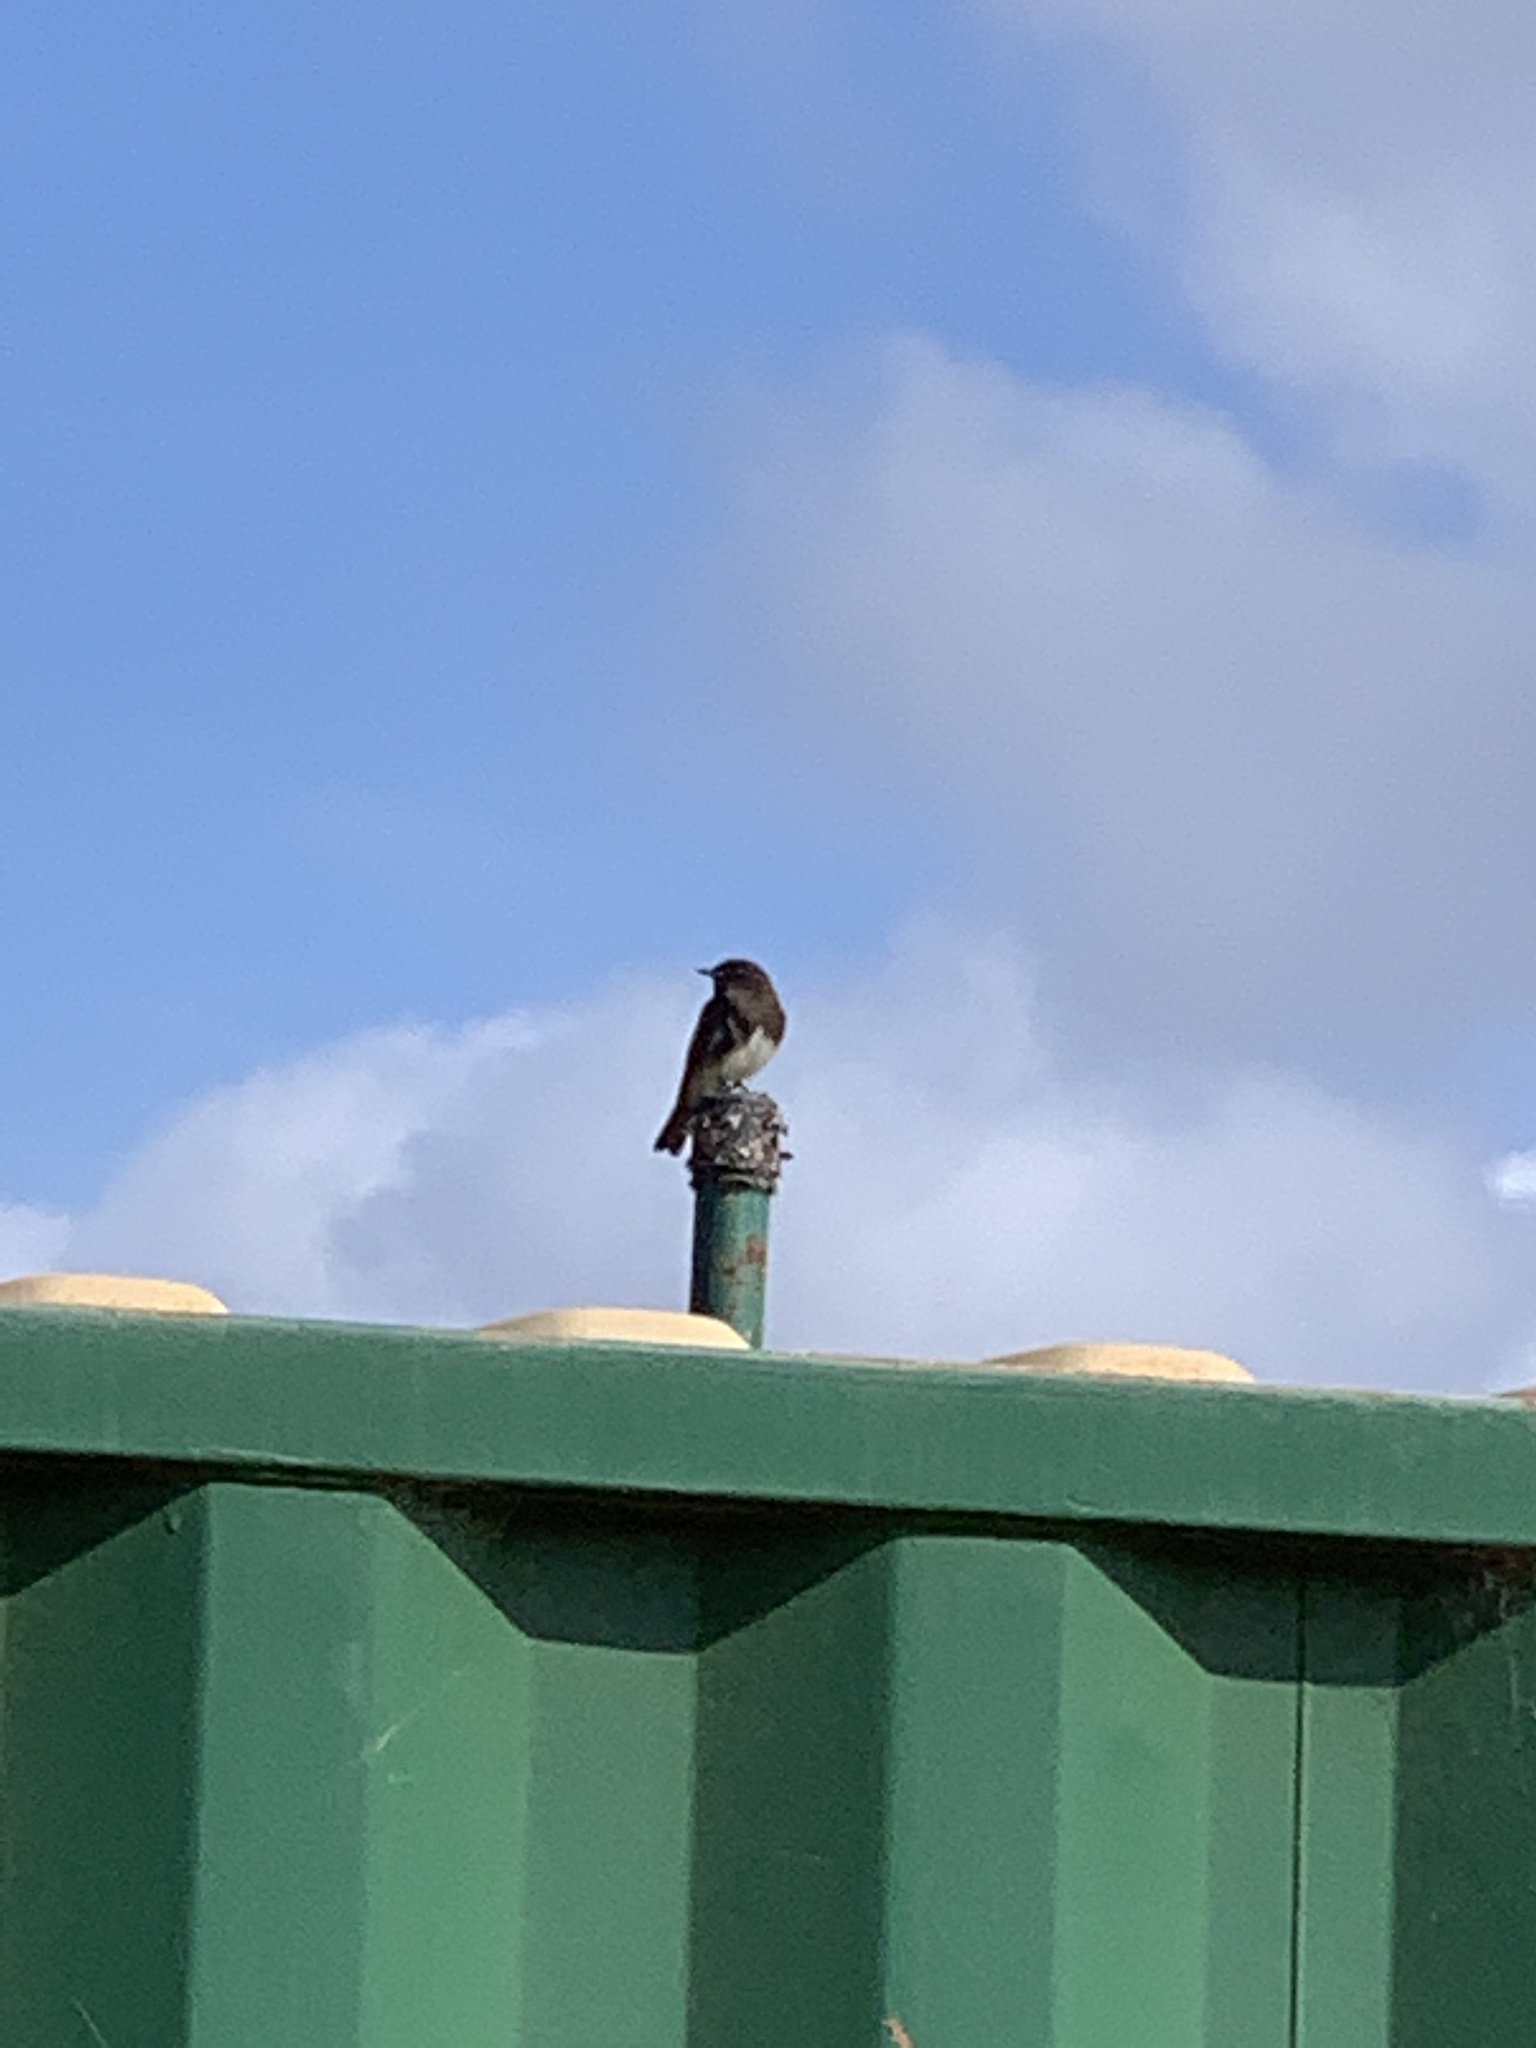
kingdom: Animalia
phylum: Chordata
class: Aves
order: Passeriformes
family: Tyrannidae
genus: Sayornis
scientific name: Sayornis nigricans
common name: Black phoebe
